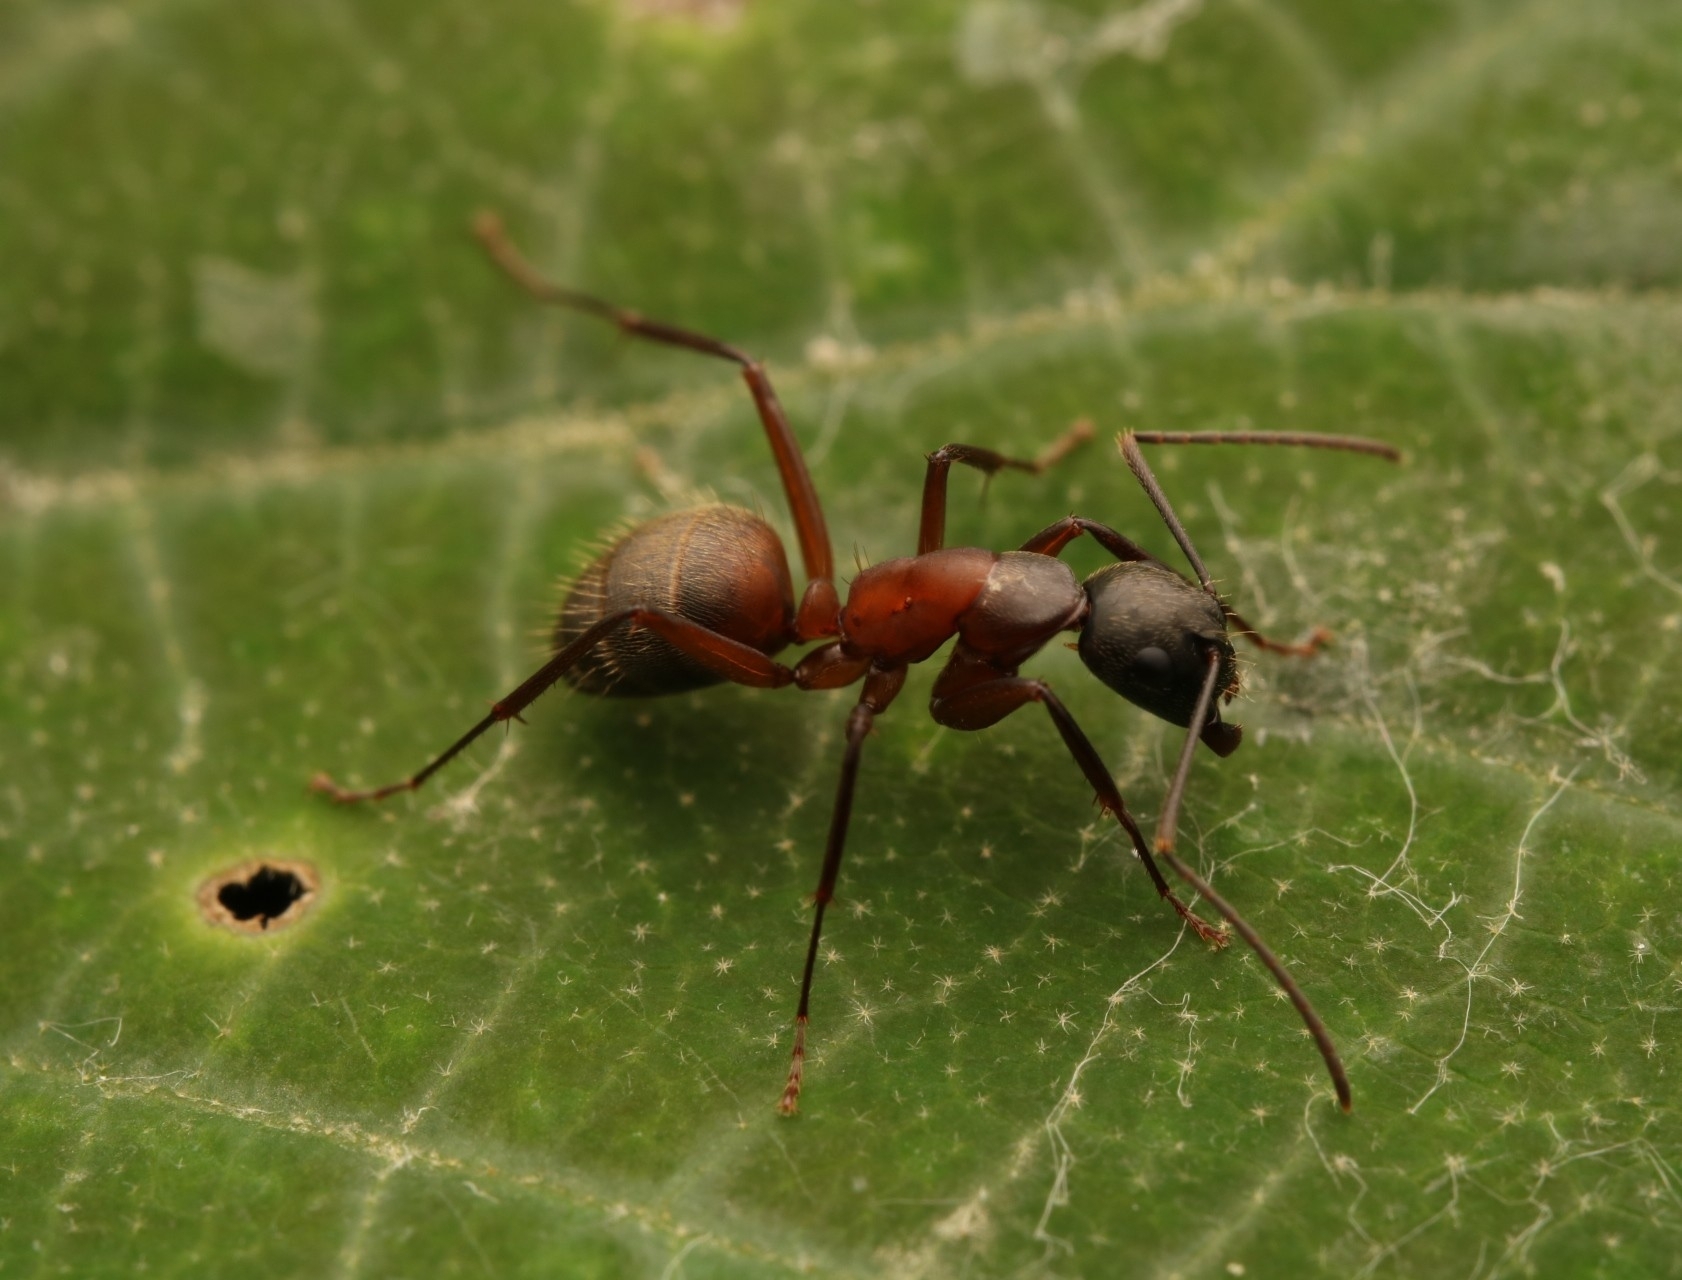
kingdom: Animalia
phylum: Arthropoda
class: Insecta
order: Hymenoptera
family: Formicidae
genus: Camponotus
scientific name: Camponotus chromaiodes
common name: Red carpenter ant
